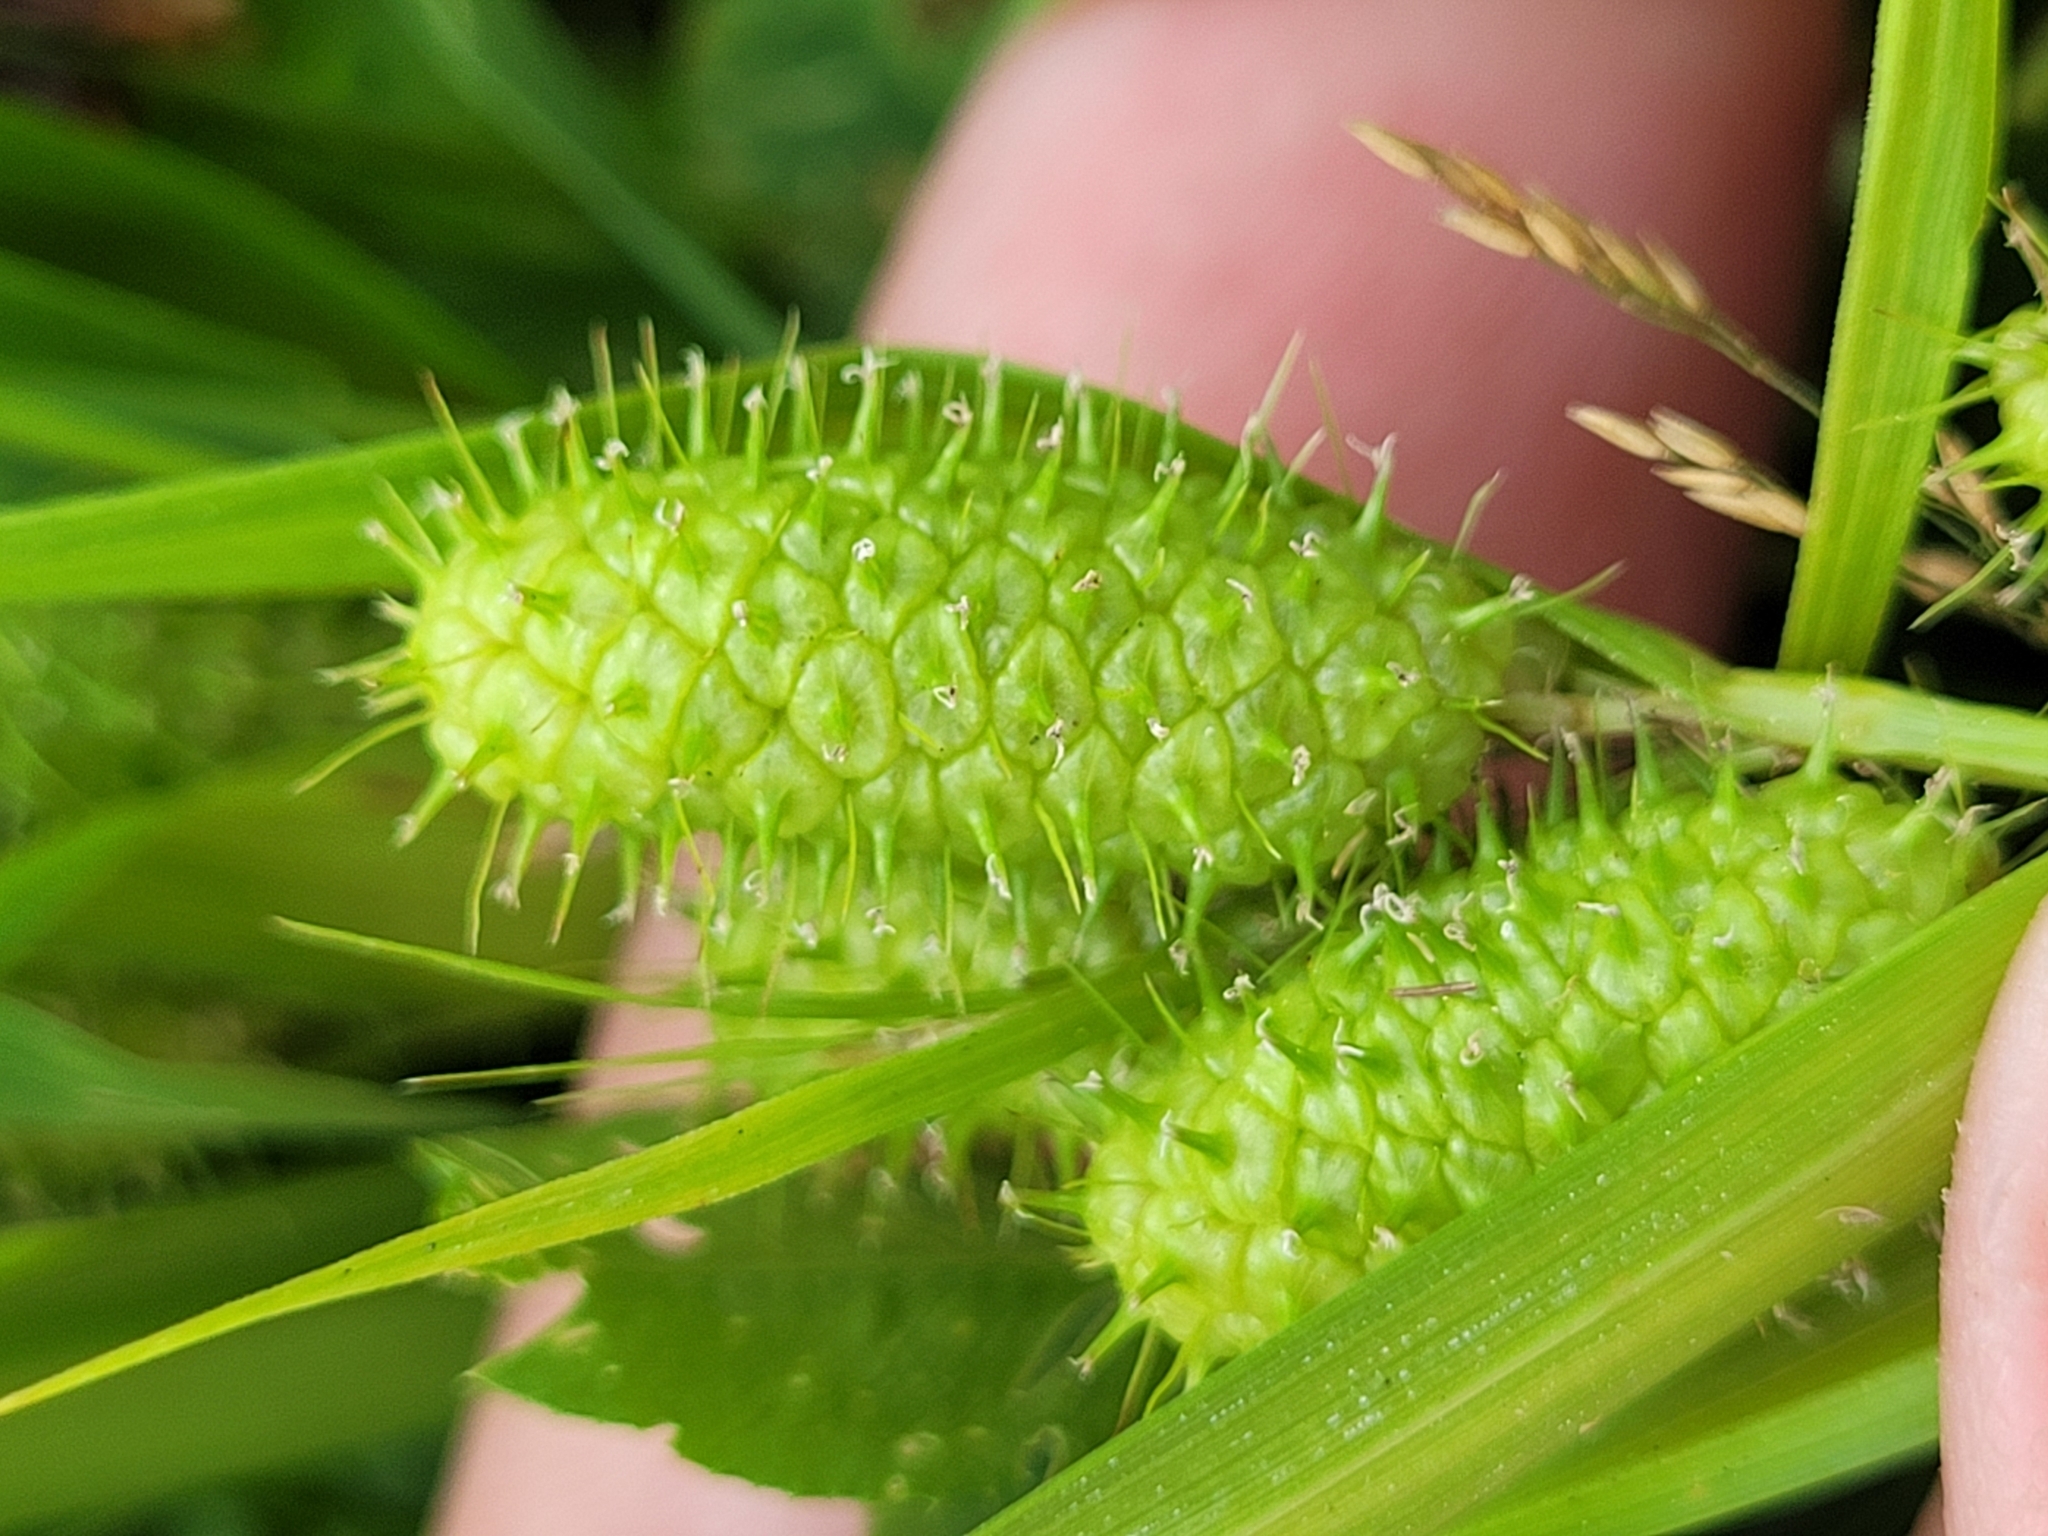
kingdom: Plantae
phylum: Tracheophyta
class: Liliopsida
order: Poales
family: Cyperaceae
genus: Carex
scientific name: Carex frankii
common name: Frank's sedge
